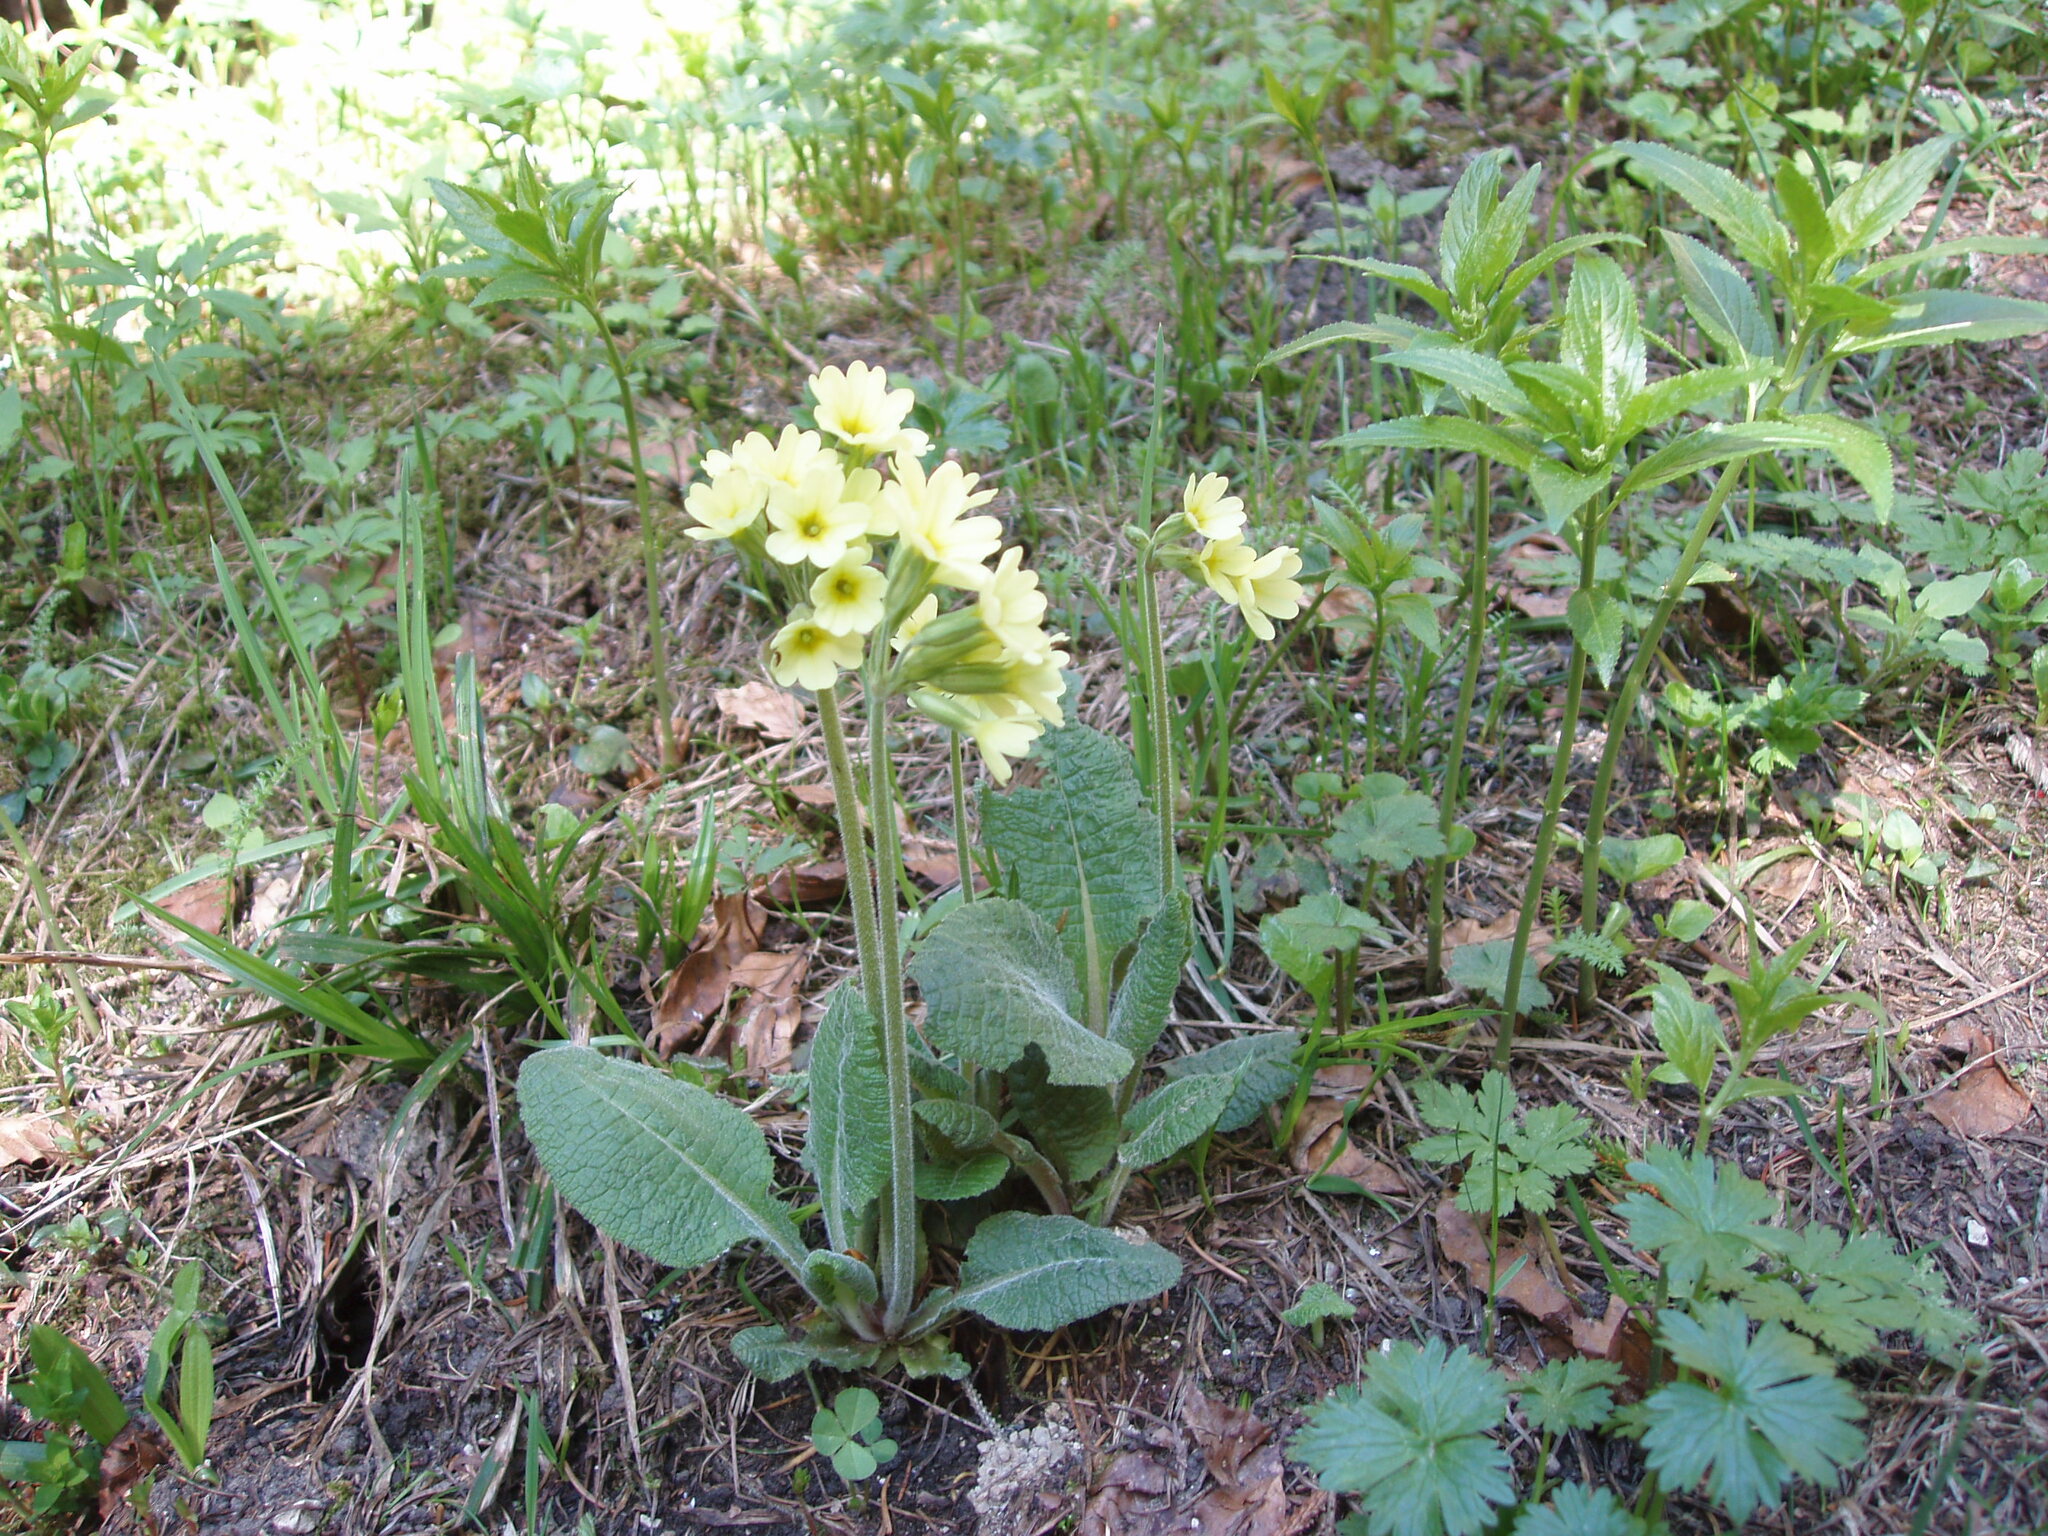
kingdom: Plantae
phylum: Tracheophyta
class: Magnoliopsida
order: Ericales
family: Primulaceae
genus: Primula
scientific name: Primula elatior
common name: Oxlip
